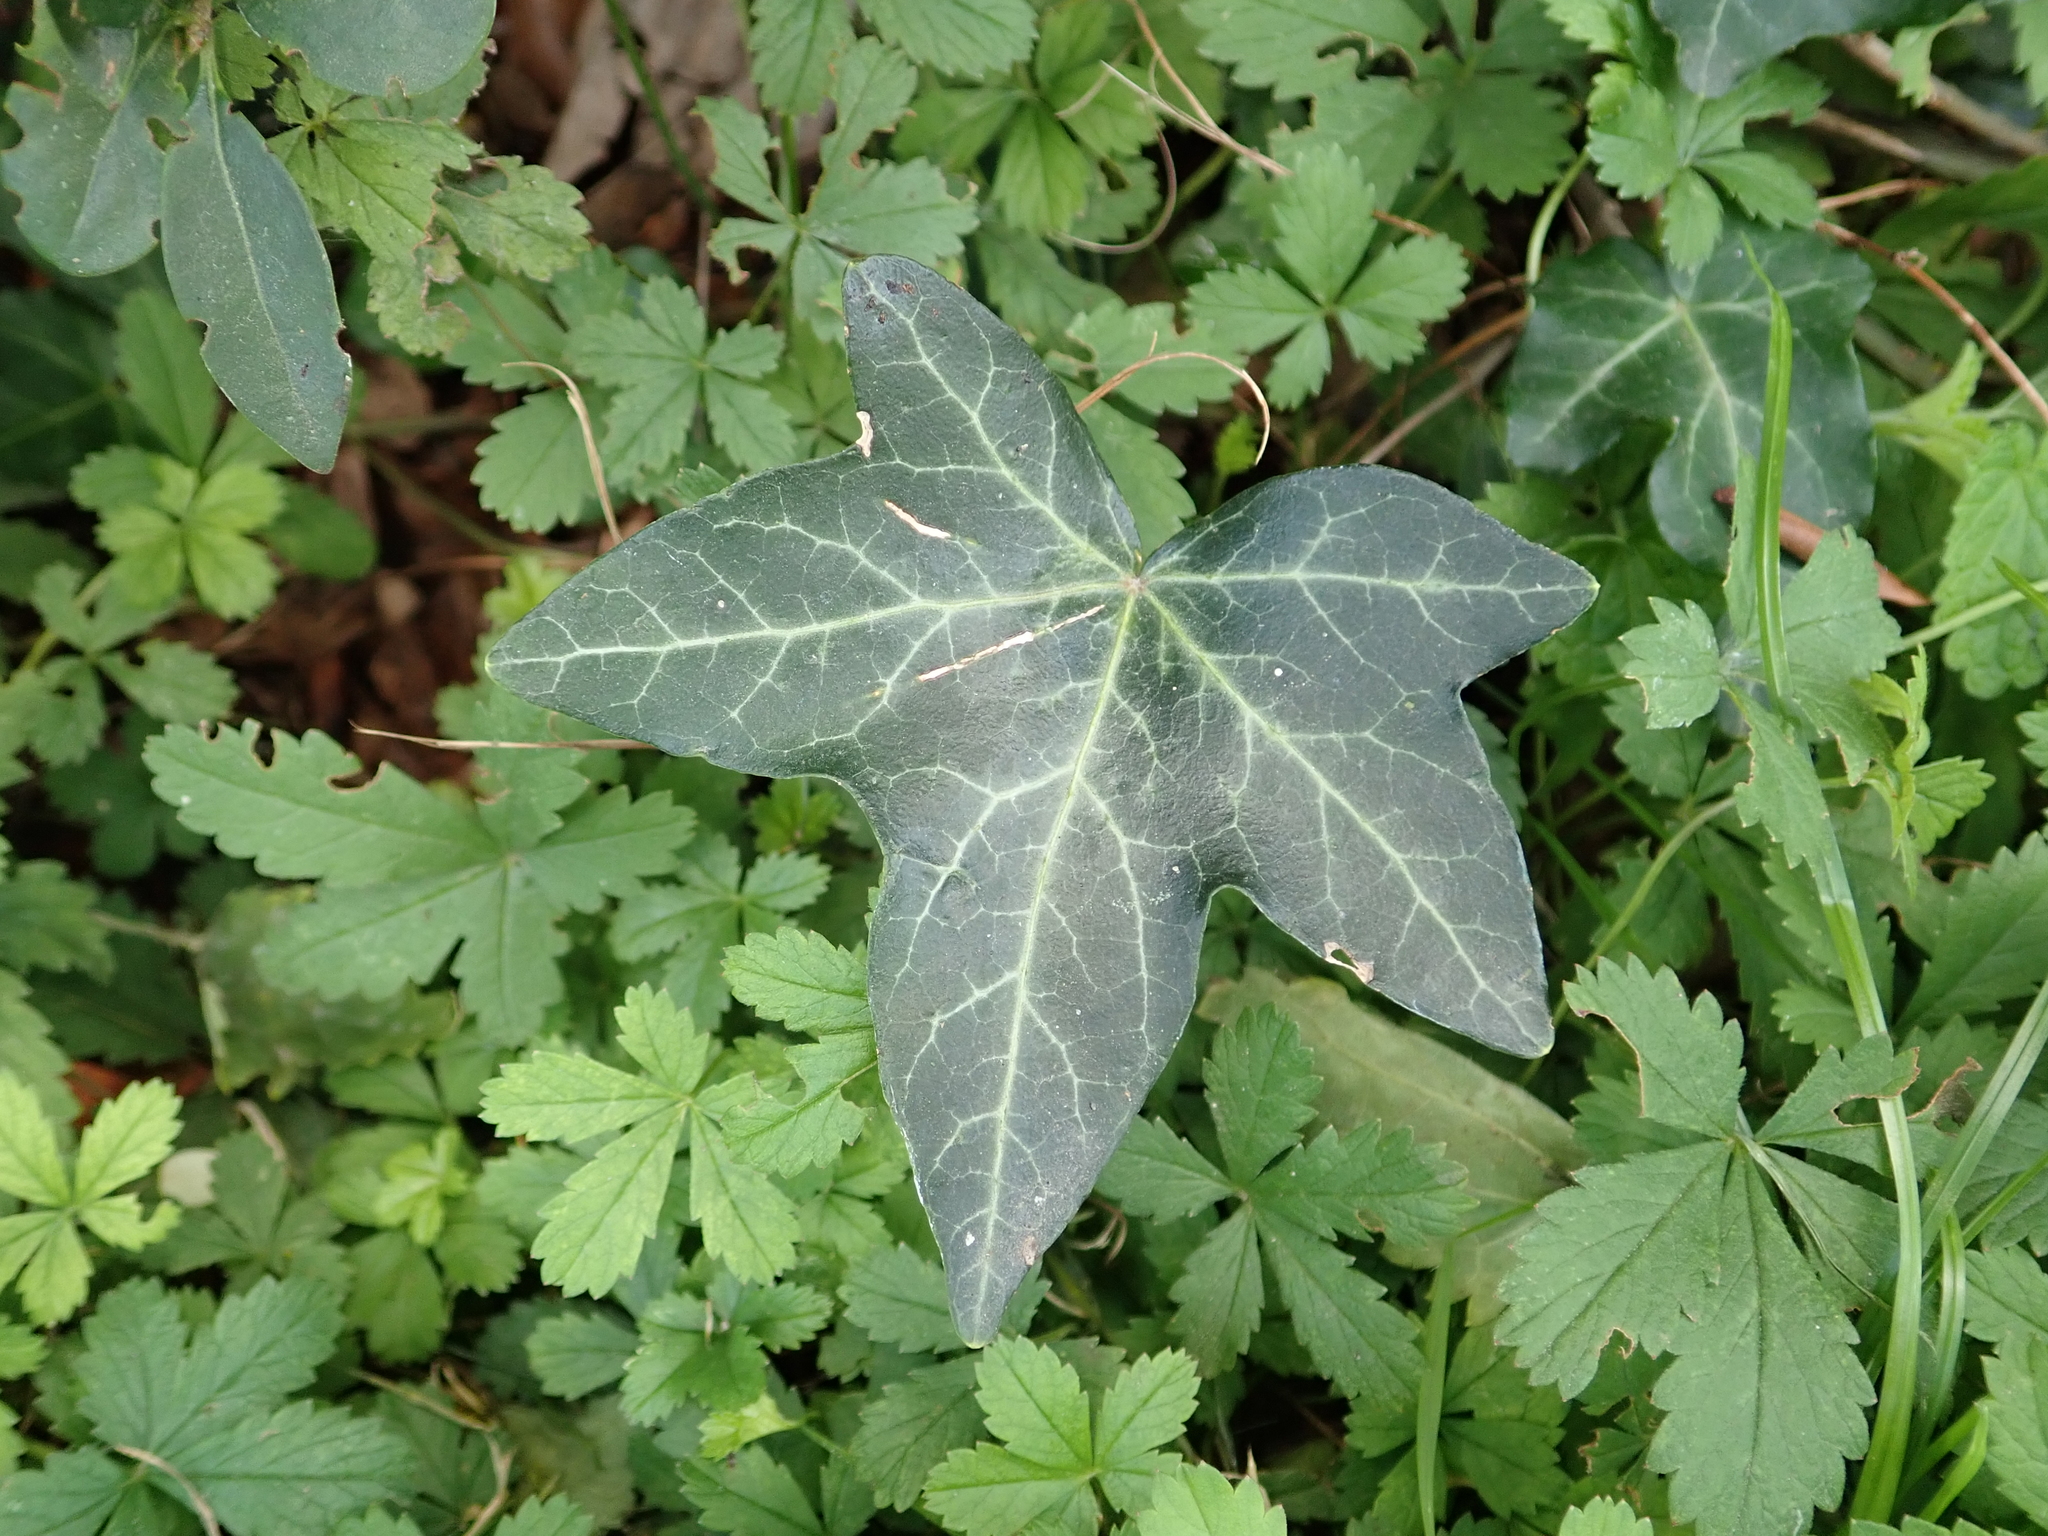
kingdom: Plantae
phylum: Tracheophyta
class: Magnoliopsida
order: Apiales
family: Araliaceae
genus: Hedera
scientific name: Hedera helix
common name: Ivy
